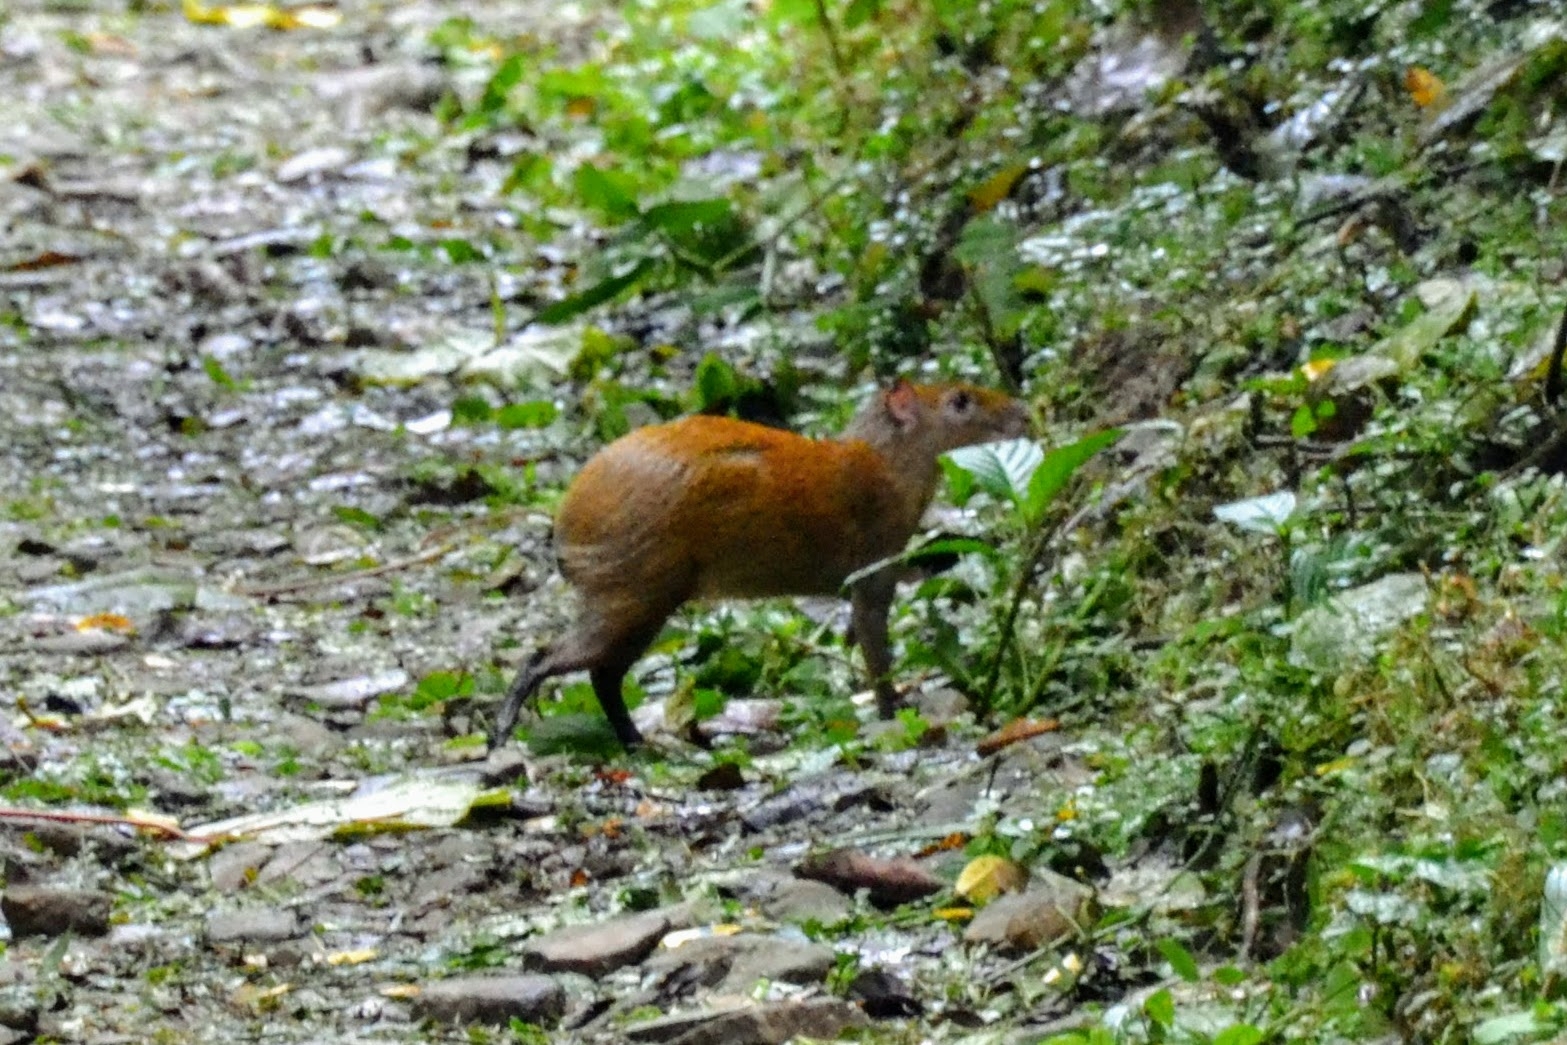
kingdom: Animalia
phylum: Chordata
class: Mammalia
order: Rodentia
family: Dasyproctidae
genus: Dasyprocta
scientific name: Dasyprocta punctata
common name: Central american agouti
